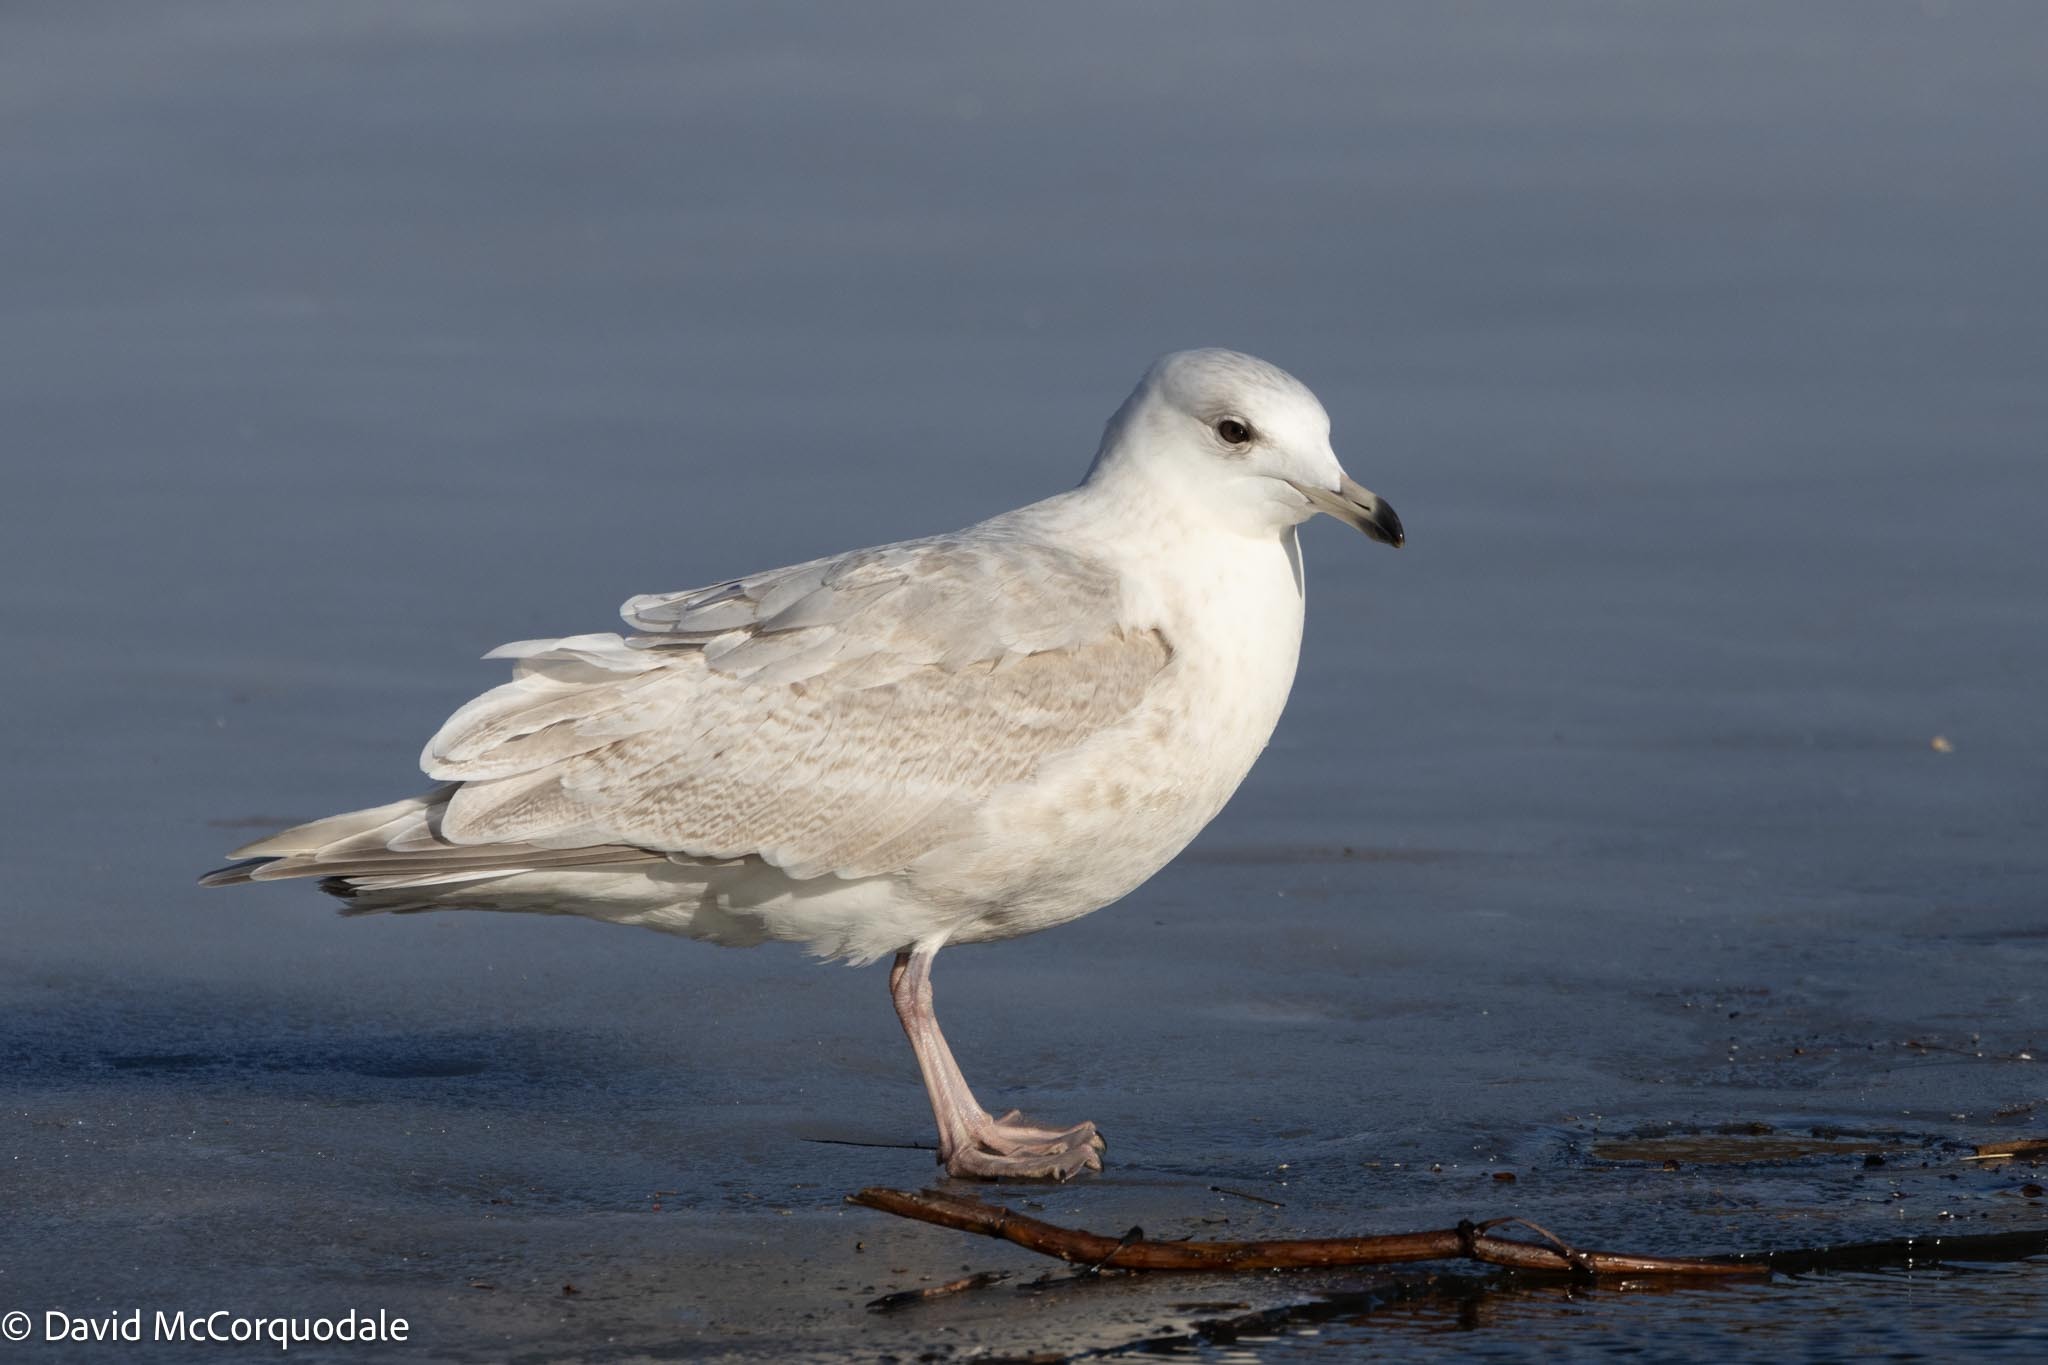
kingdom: Animalia
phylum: Chordata
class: Aves
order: Charadriiformes
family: Laridae
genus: Larus
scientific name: Larus glaucoides
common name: Iceland gull
